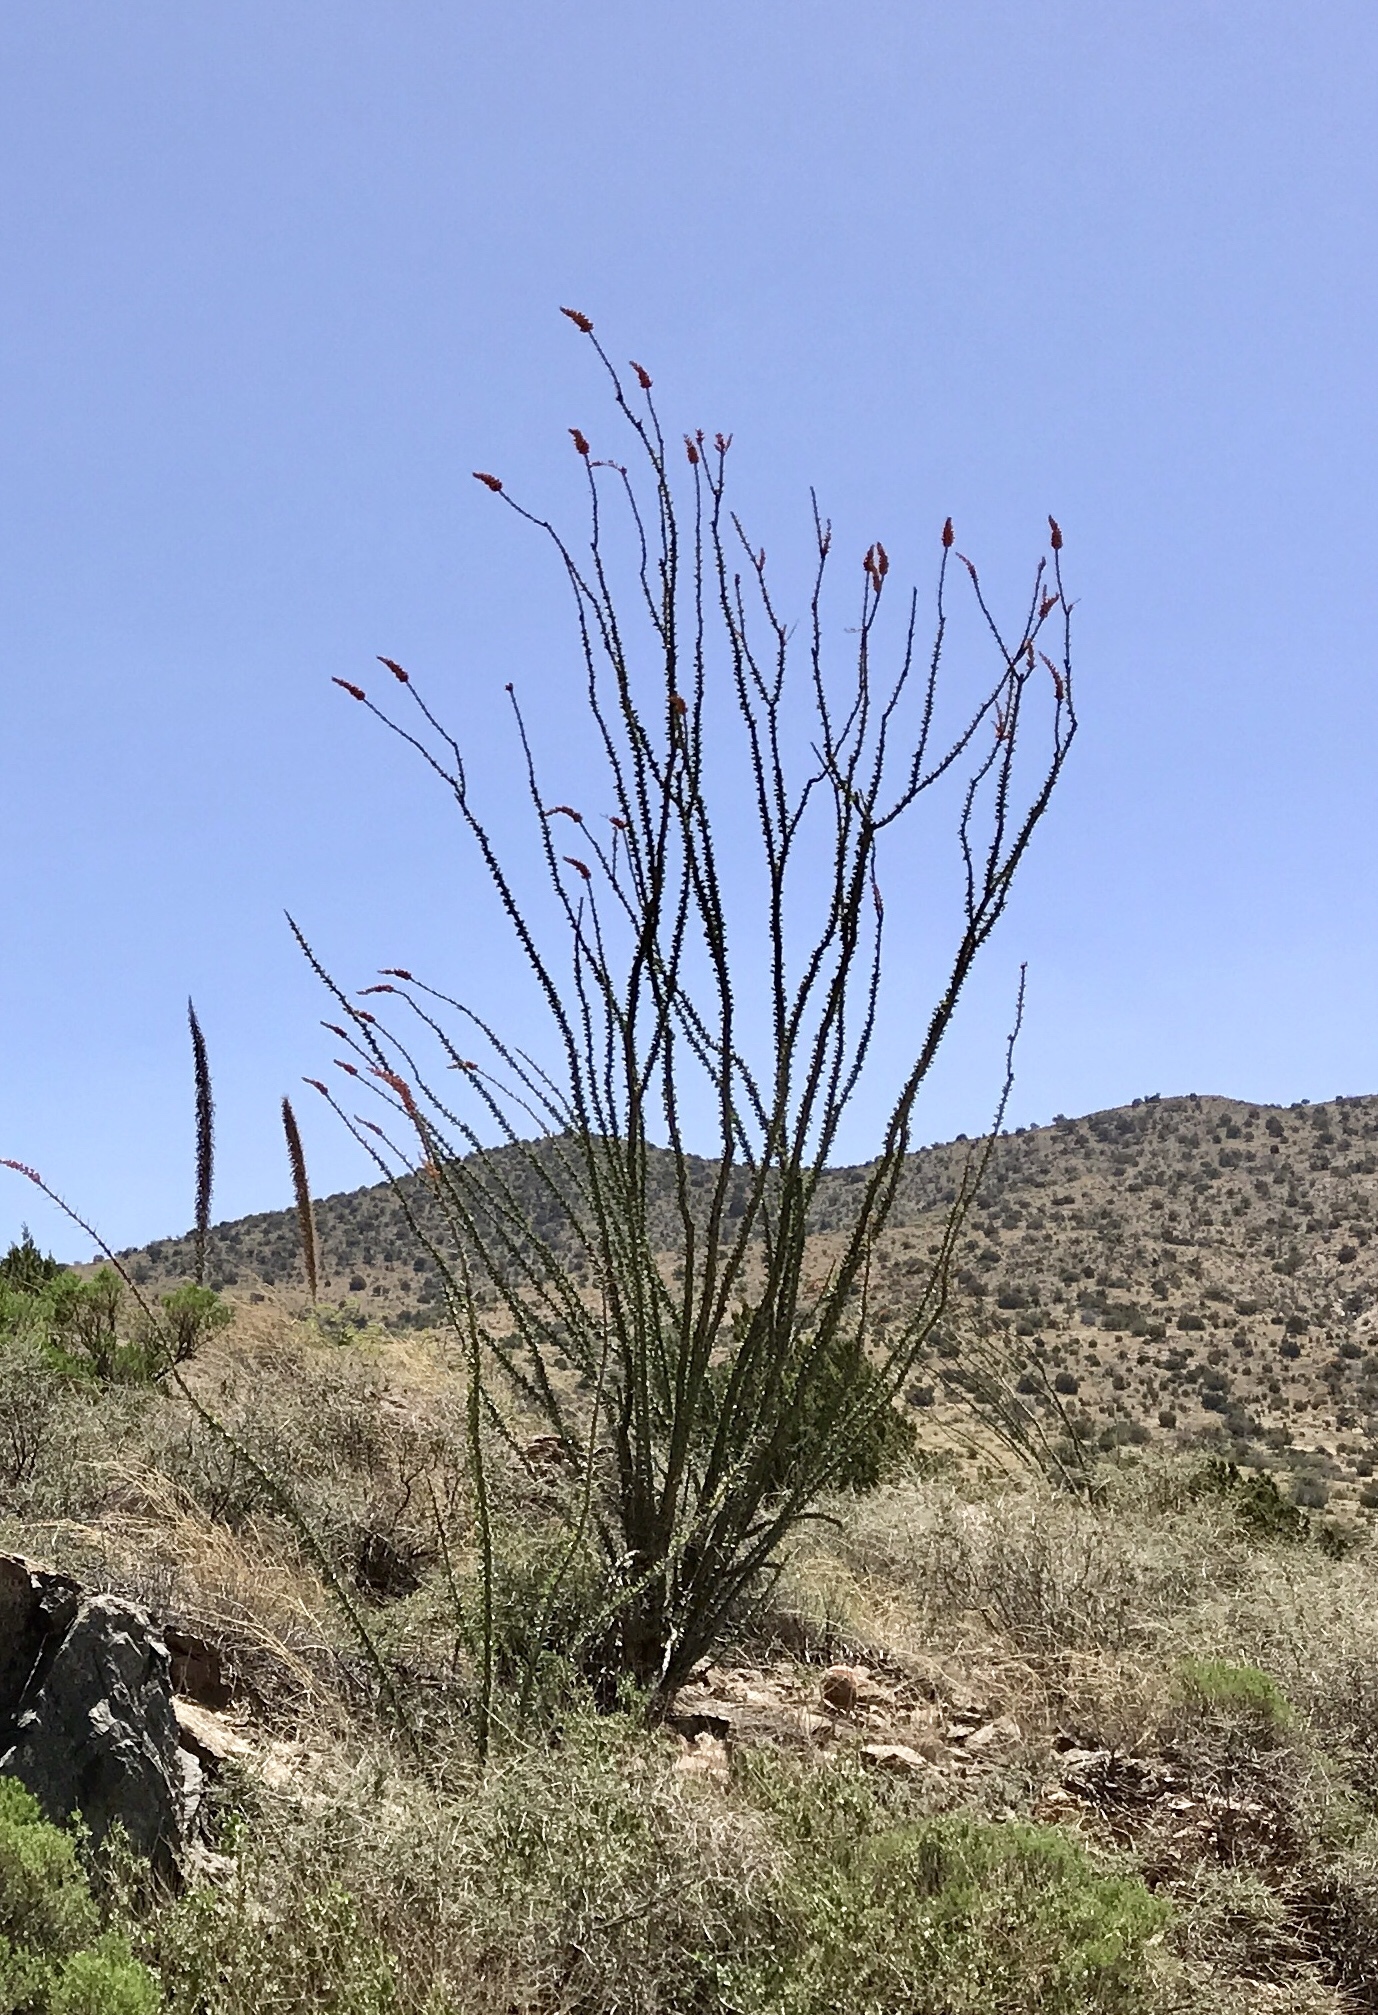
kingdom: Plantae
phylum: Tracheophyta
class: Magnoliopsida
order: Ericales
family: Fouquieriaceae
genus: Fouquieria
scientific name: Fouquieria splendens
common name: Vine-cactus
